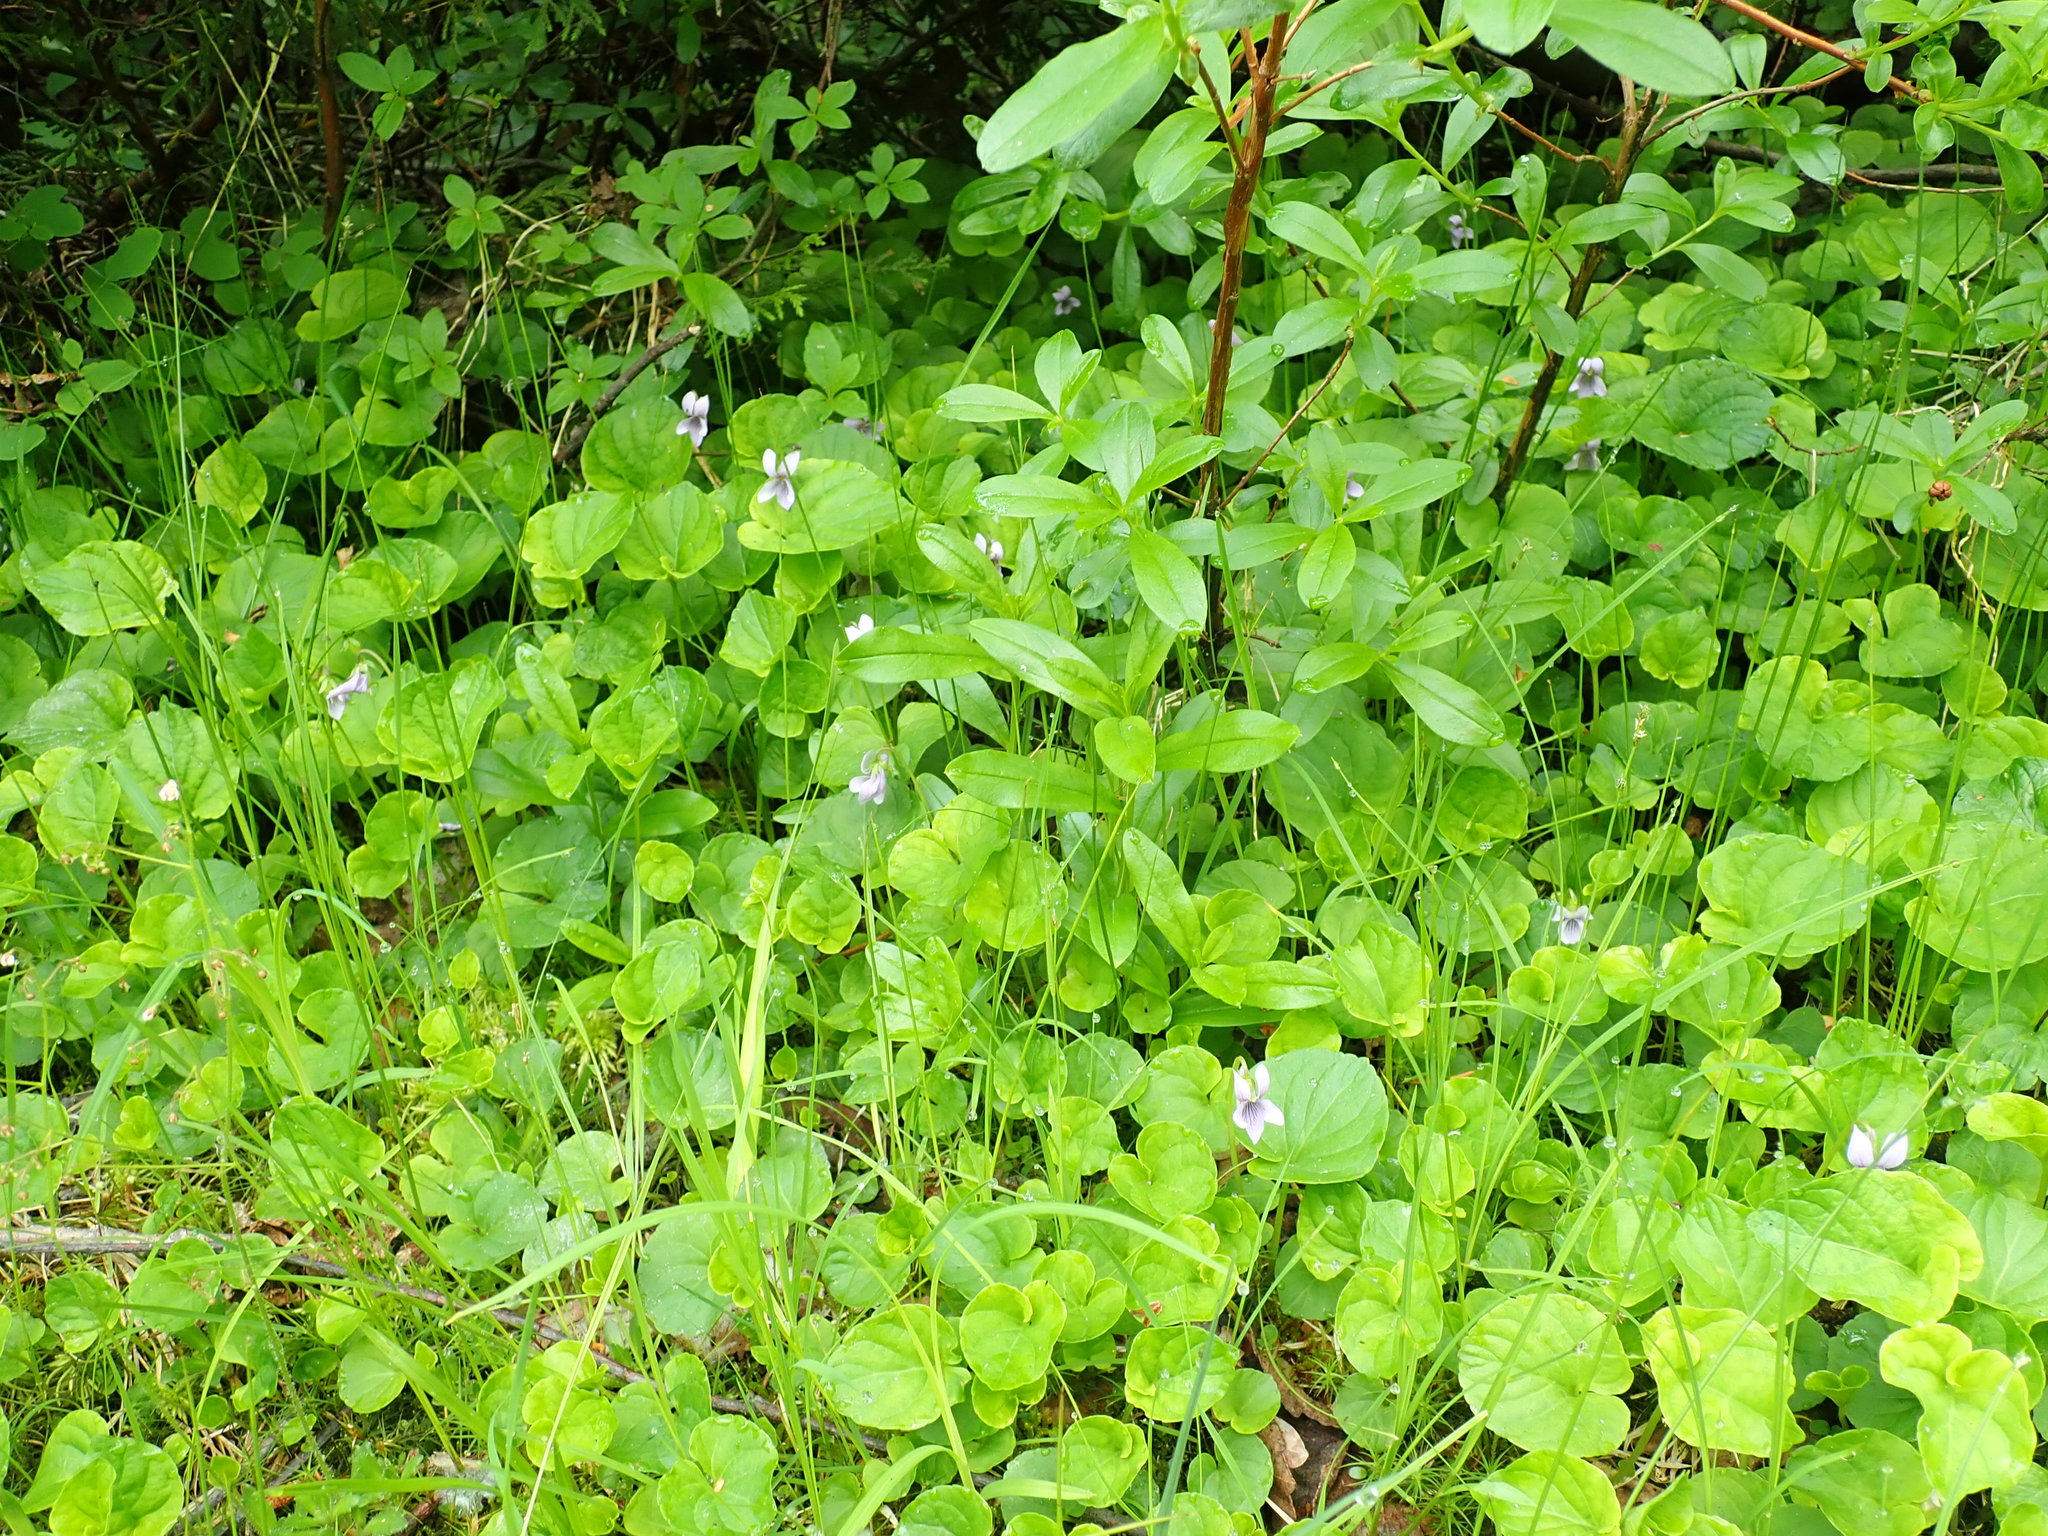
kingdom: Plantae
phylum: Tracheophyta
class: Magnoliopsida
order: Malpighiales
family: Violaceae
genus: Viola
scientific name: Viola palustris
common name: Marsh violet
